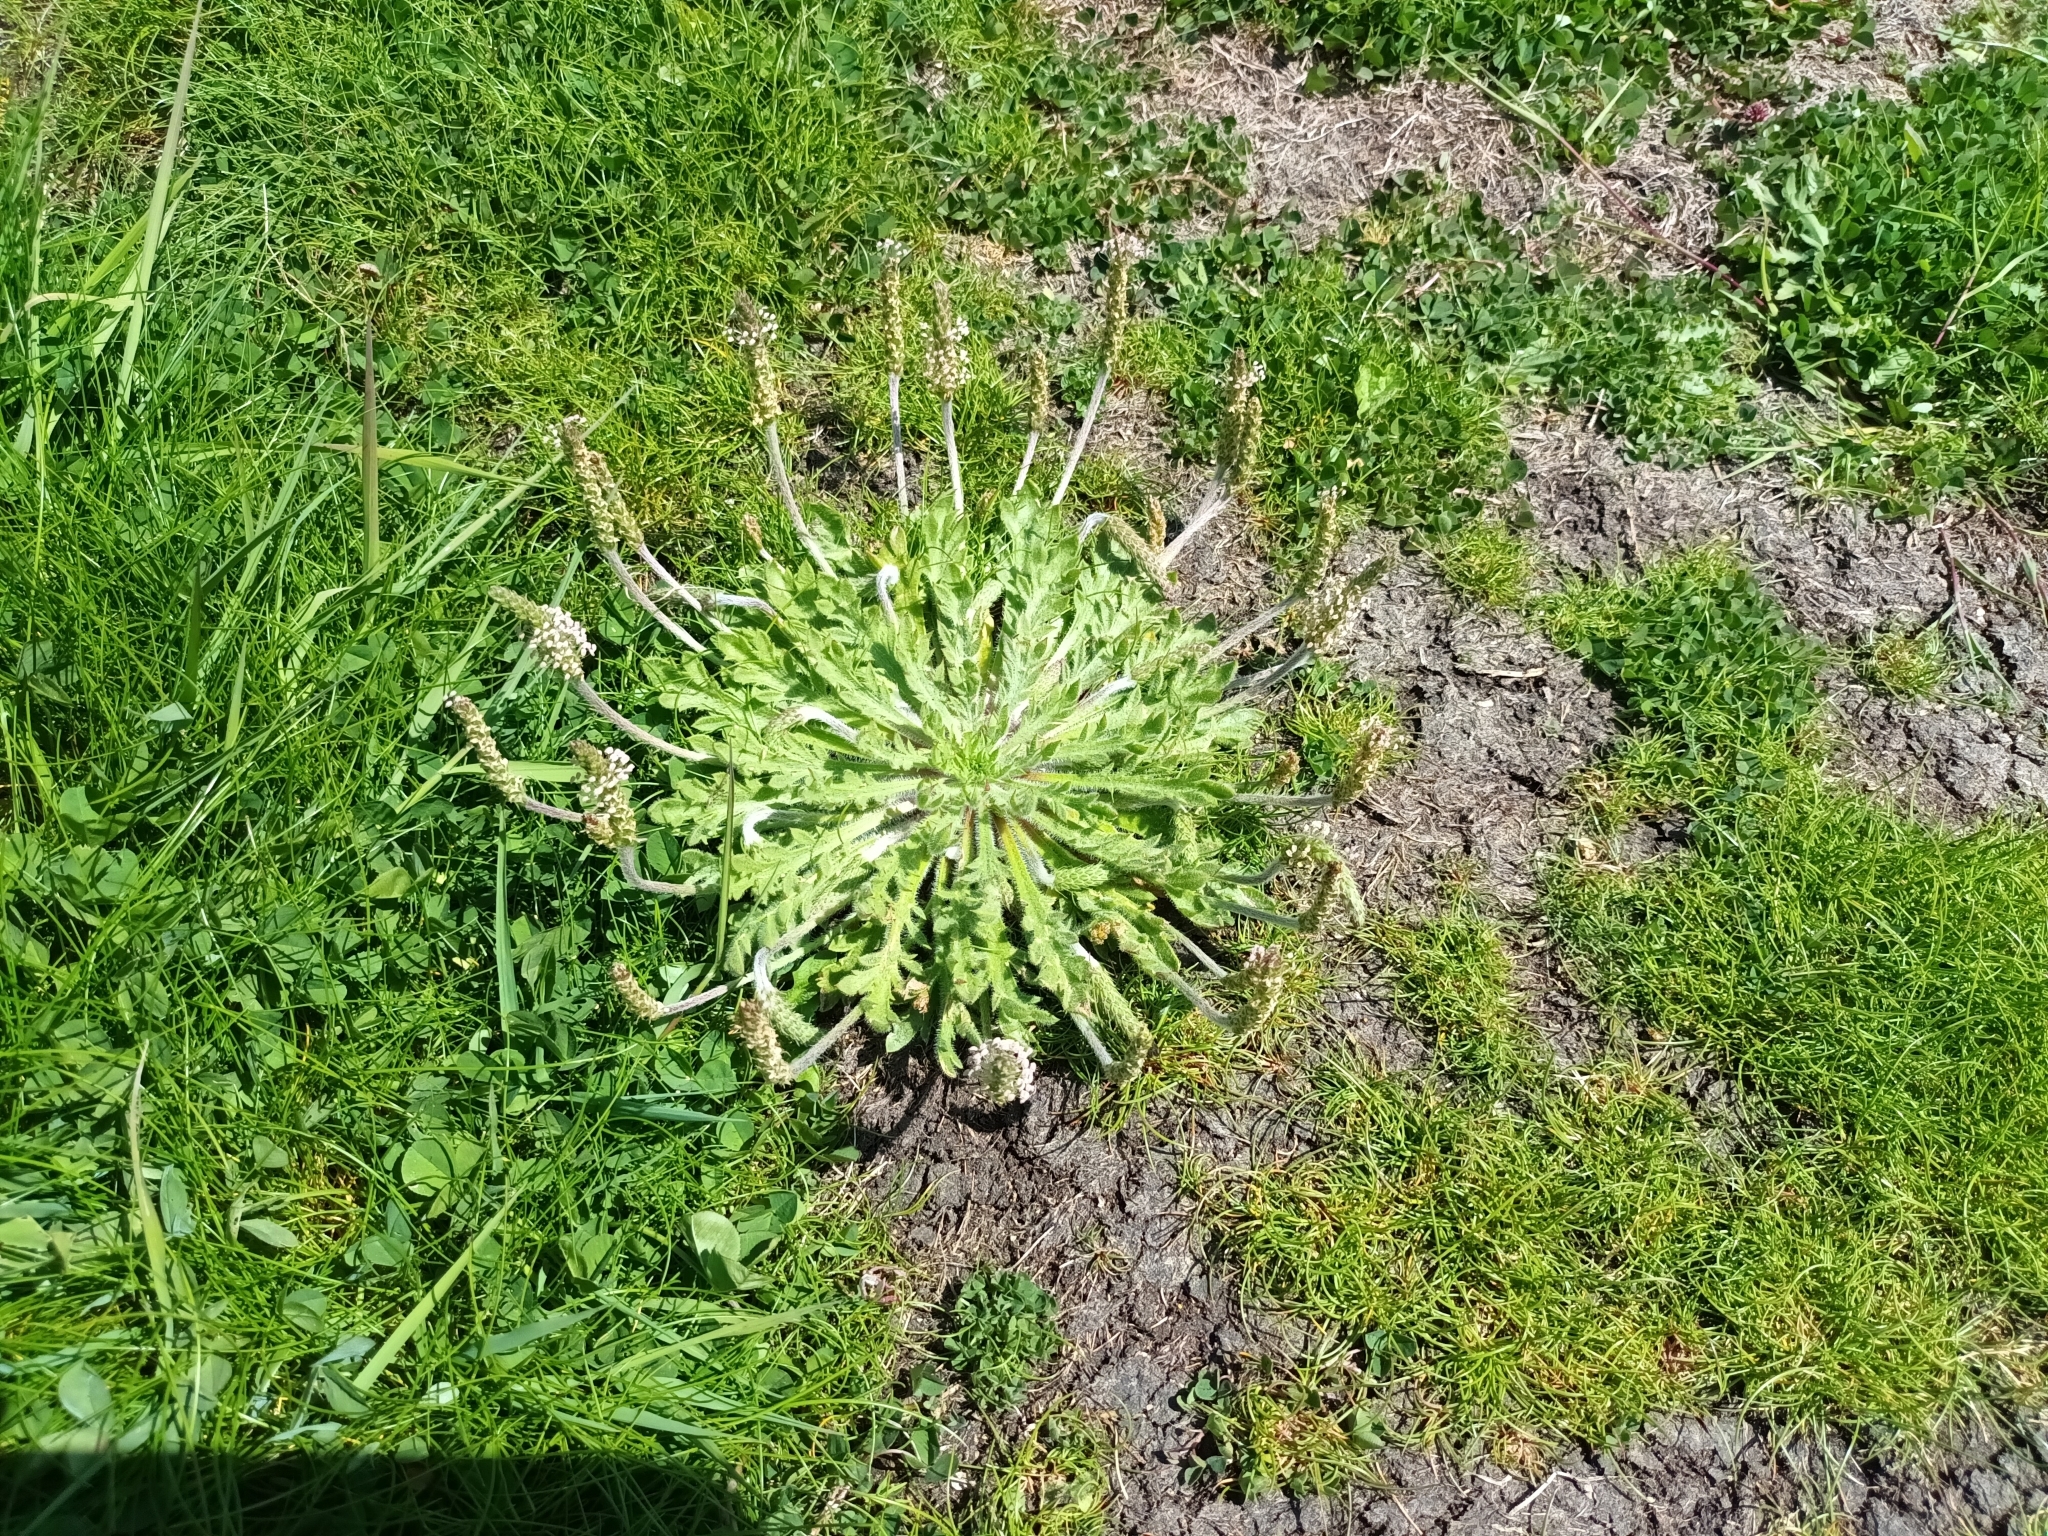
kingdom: Plantae
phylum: Tracheophyta
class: Magnoliopsida
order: Lamiales
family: Plantaginaceae
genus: Plantago
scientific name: Plantago coronopus
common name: Buck's-horn plantain
